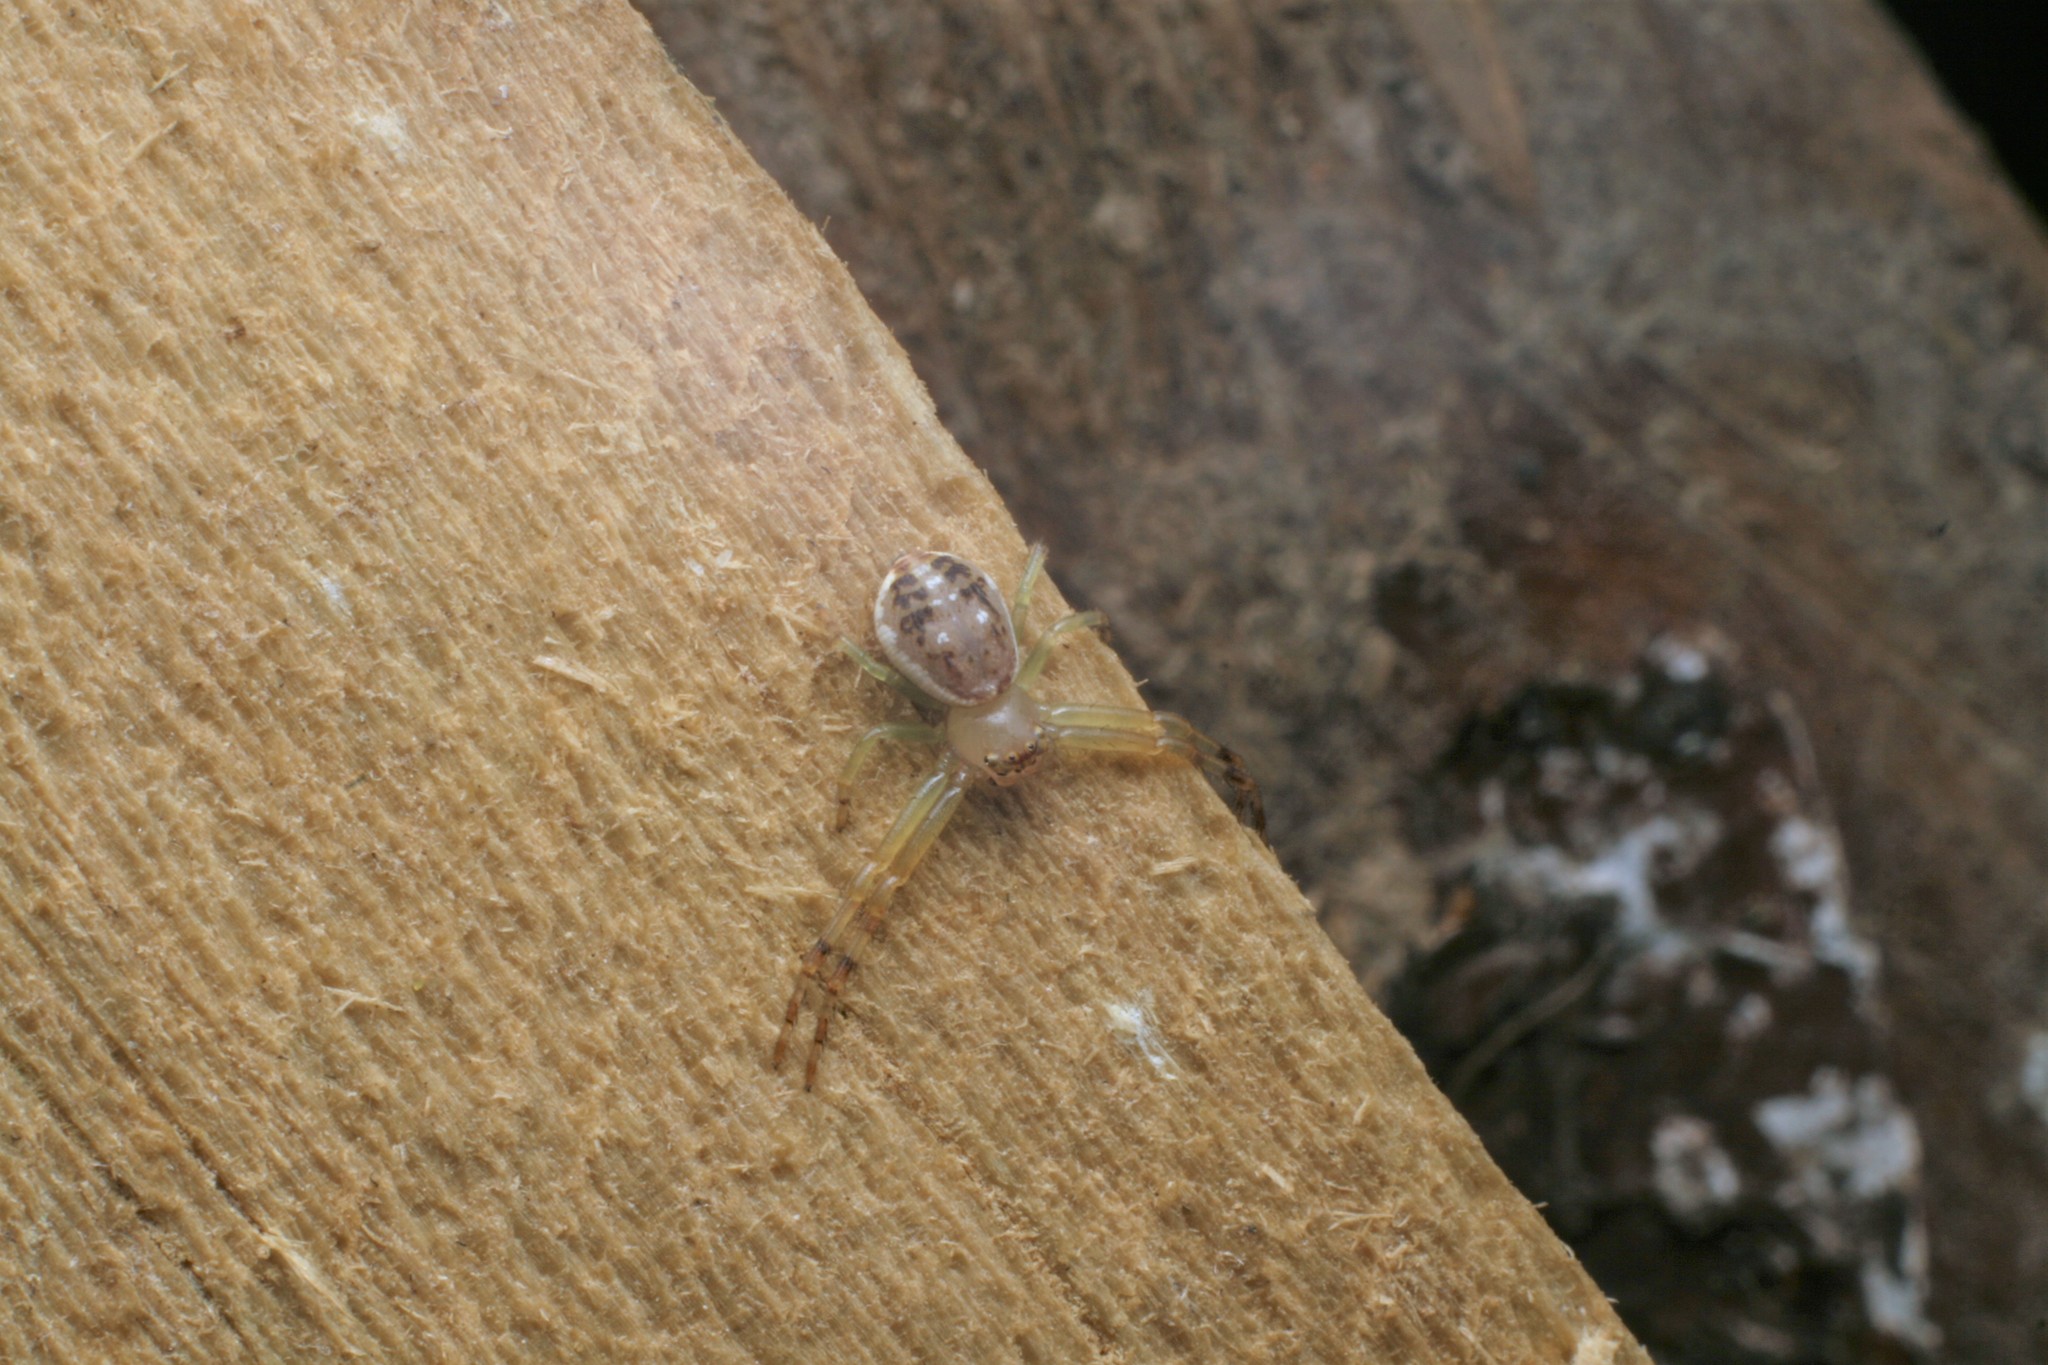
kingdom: Animalia
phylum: Arthropoda
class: Arachnida
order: Araneae
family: Thomisidae
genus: Diaea
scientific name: Diaea ambara
